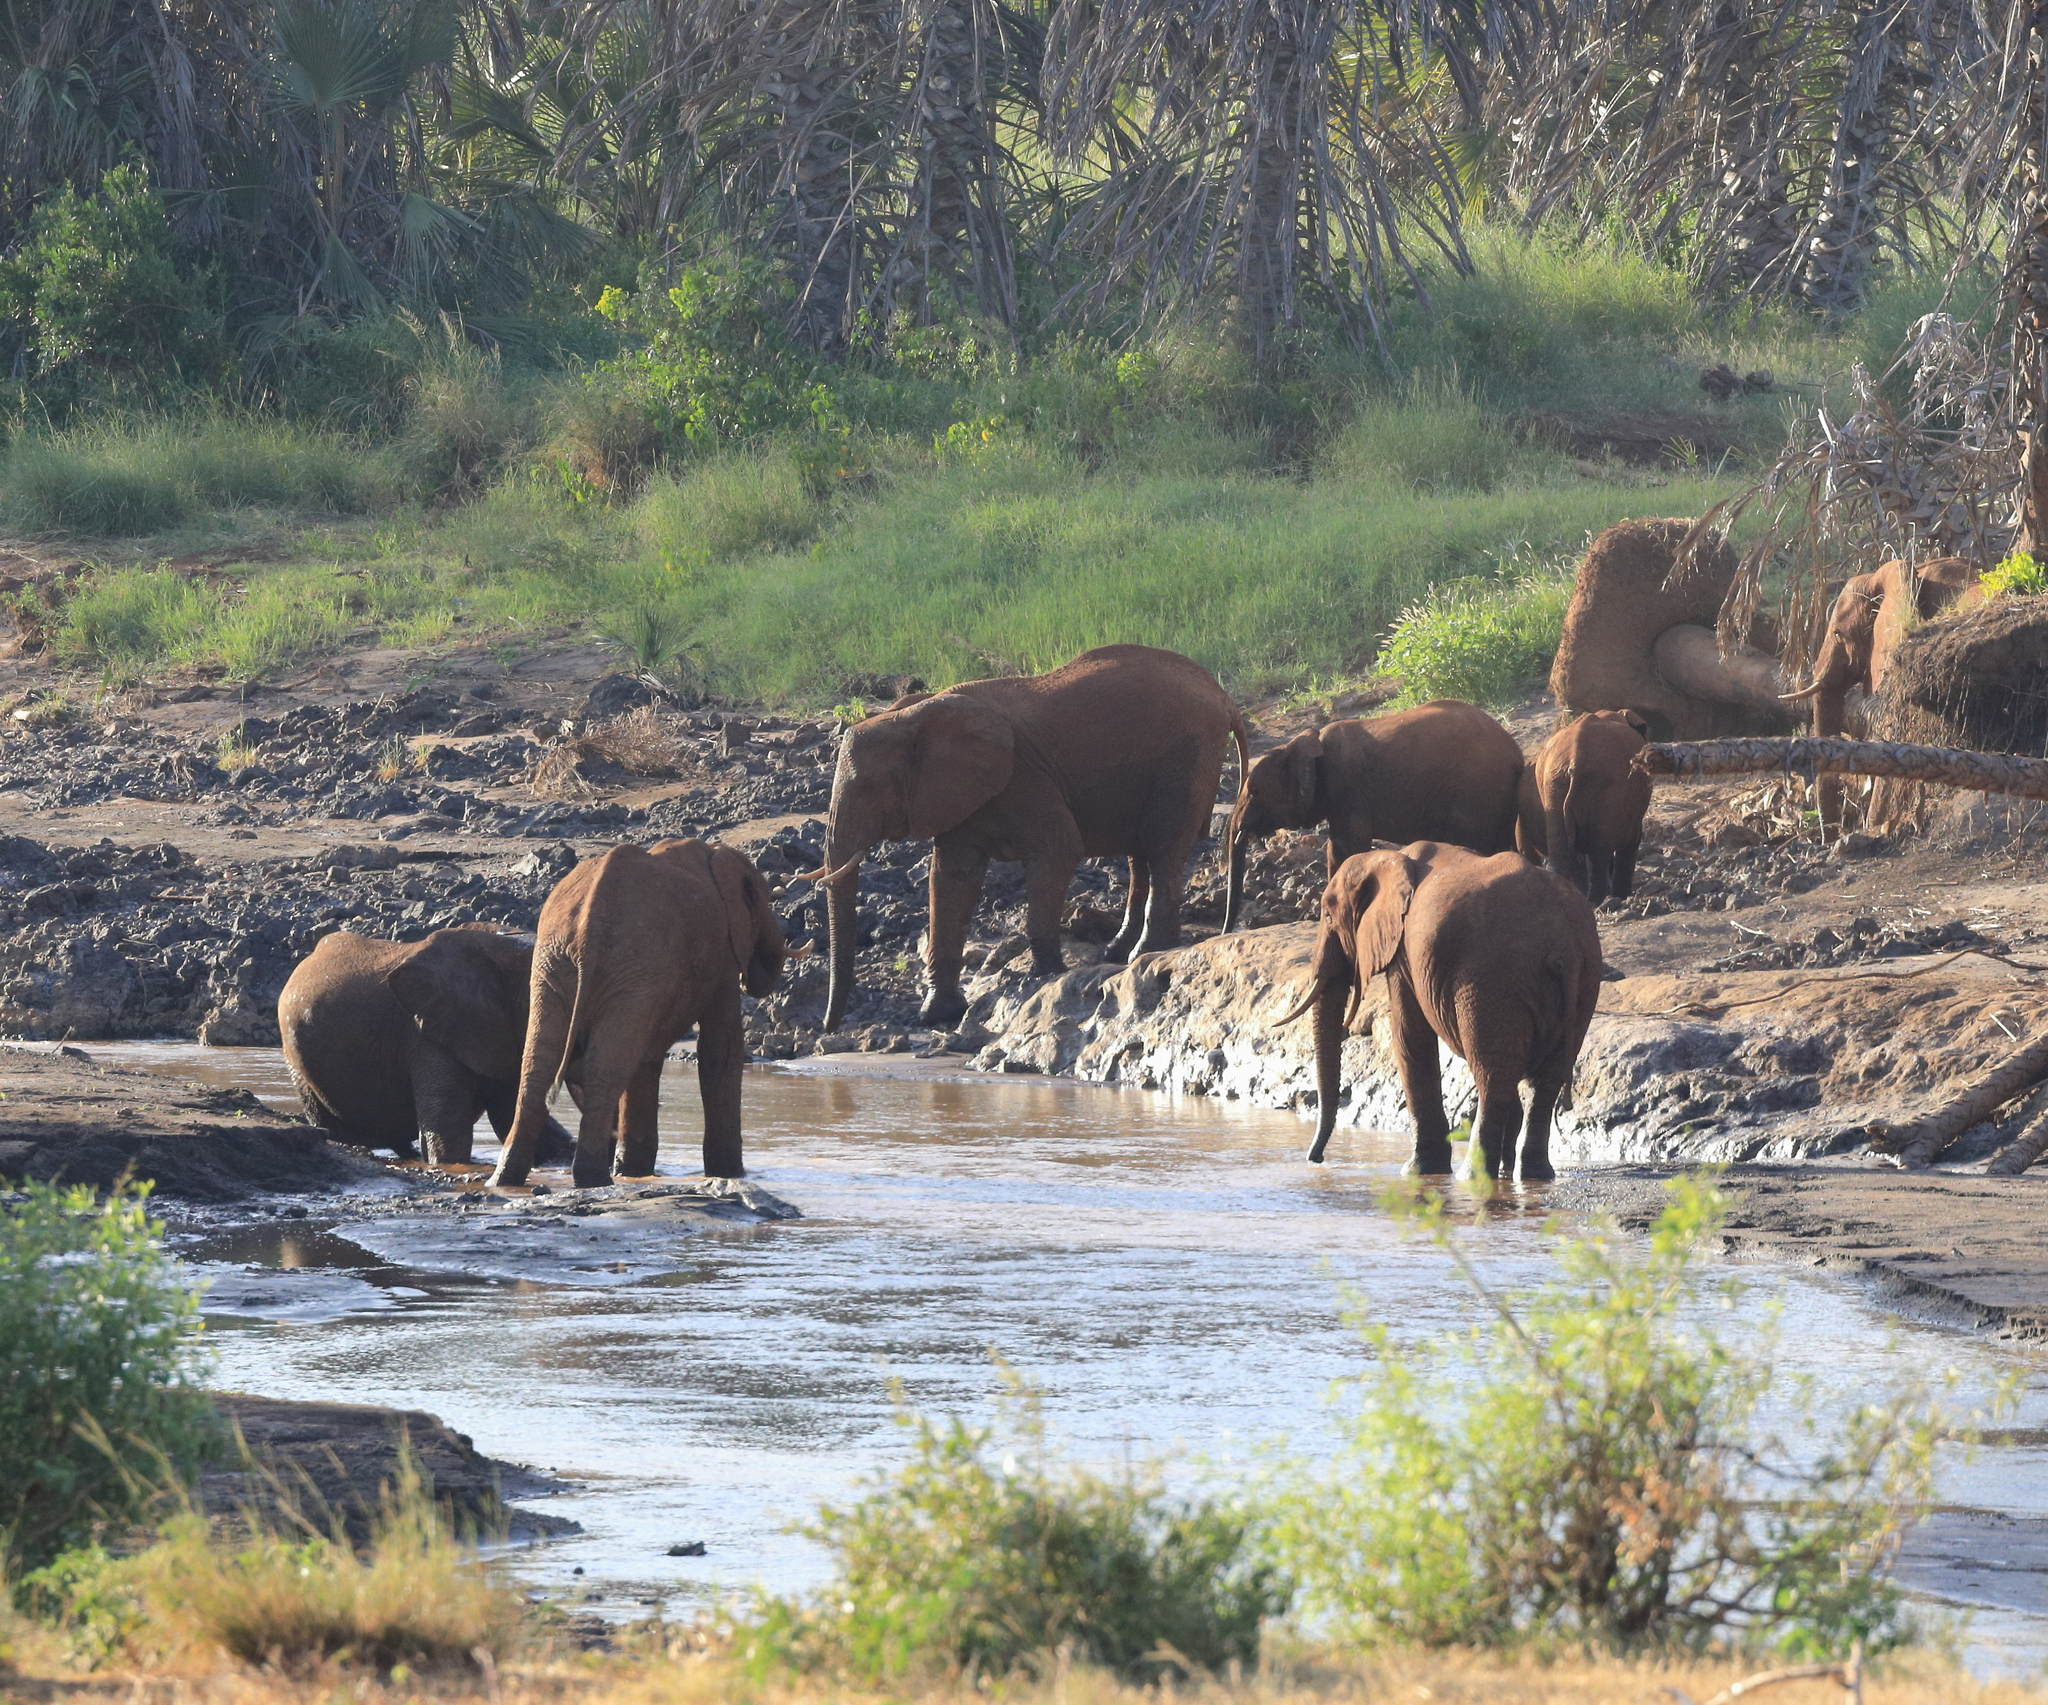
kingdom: Animalia
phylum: Chordata
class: Mammalia
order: Proboscidea
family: Elephantidae
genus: Loxodonta
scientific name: Loxodonta africana
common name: African elephant
